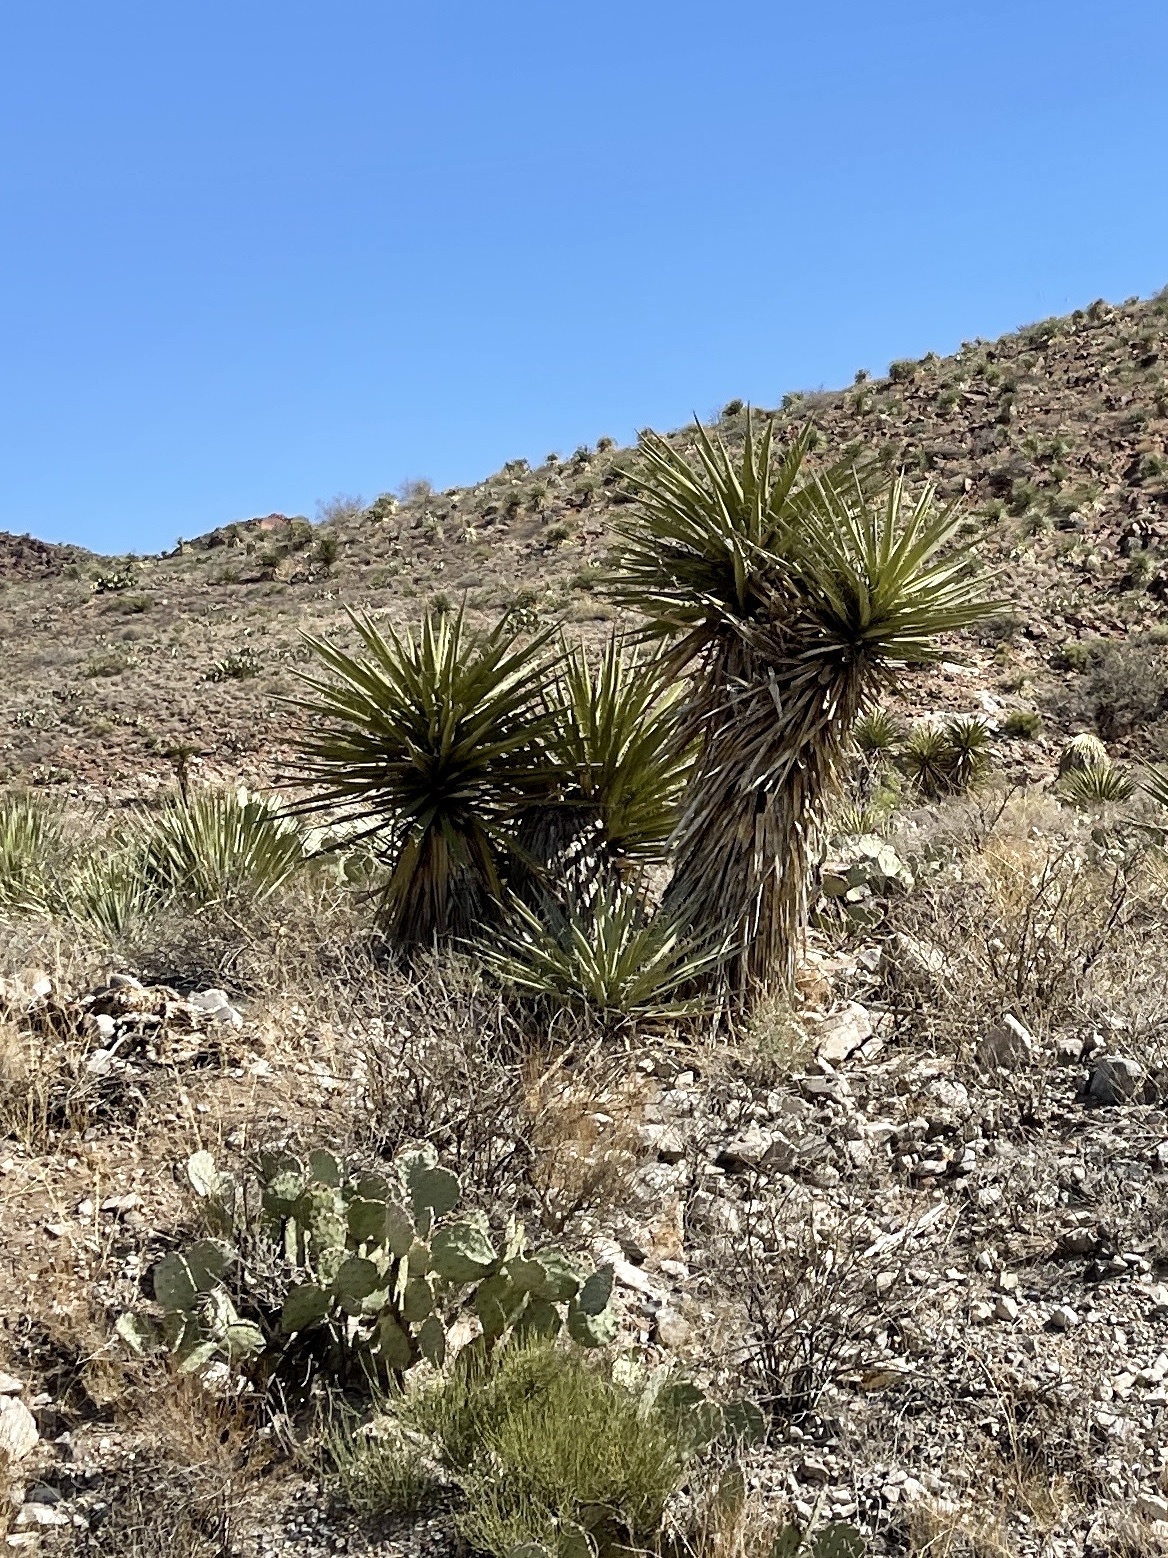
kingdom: Plantae
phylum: Tracheophyta
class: Liliopsida
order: Asparagales
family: Asparagaceae
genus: Yucca
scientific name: Yucca treculiana
